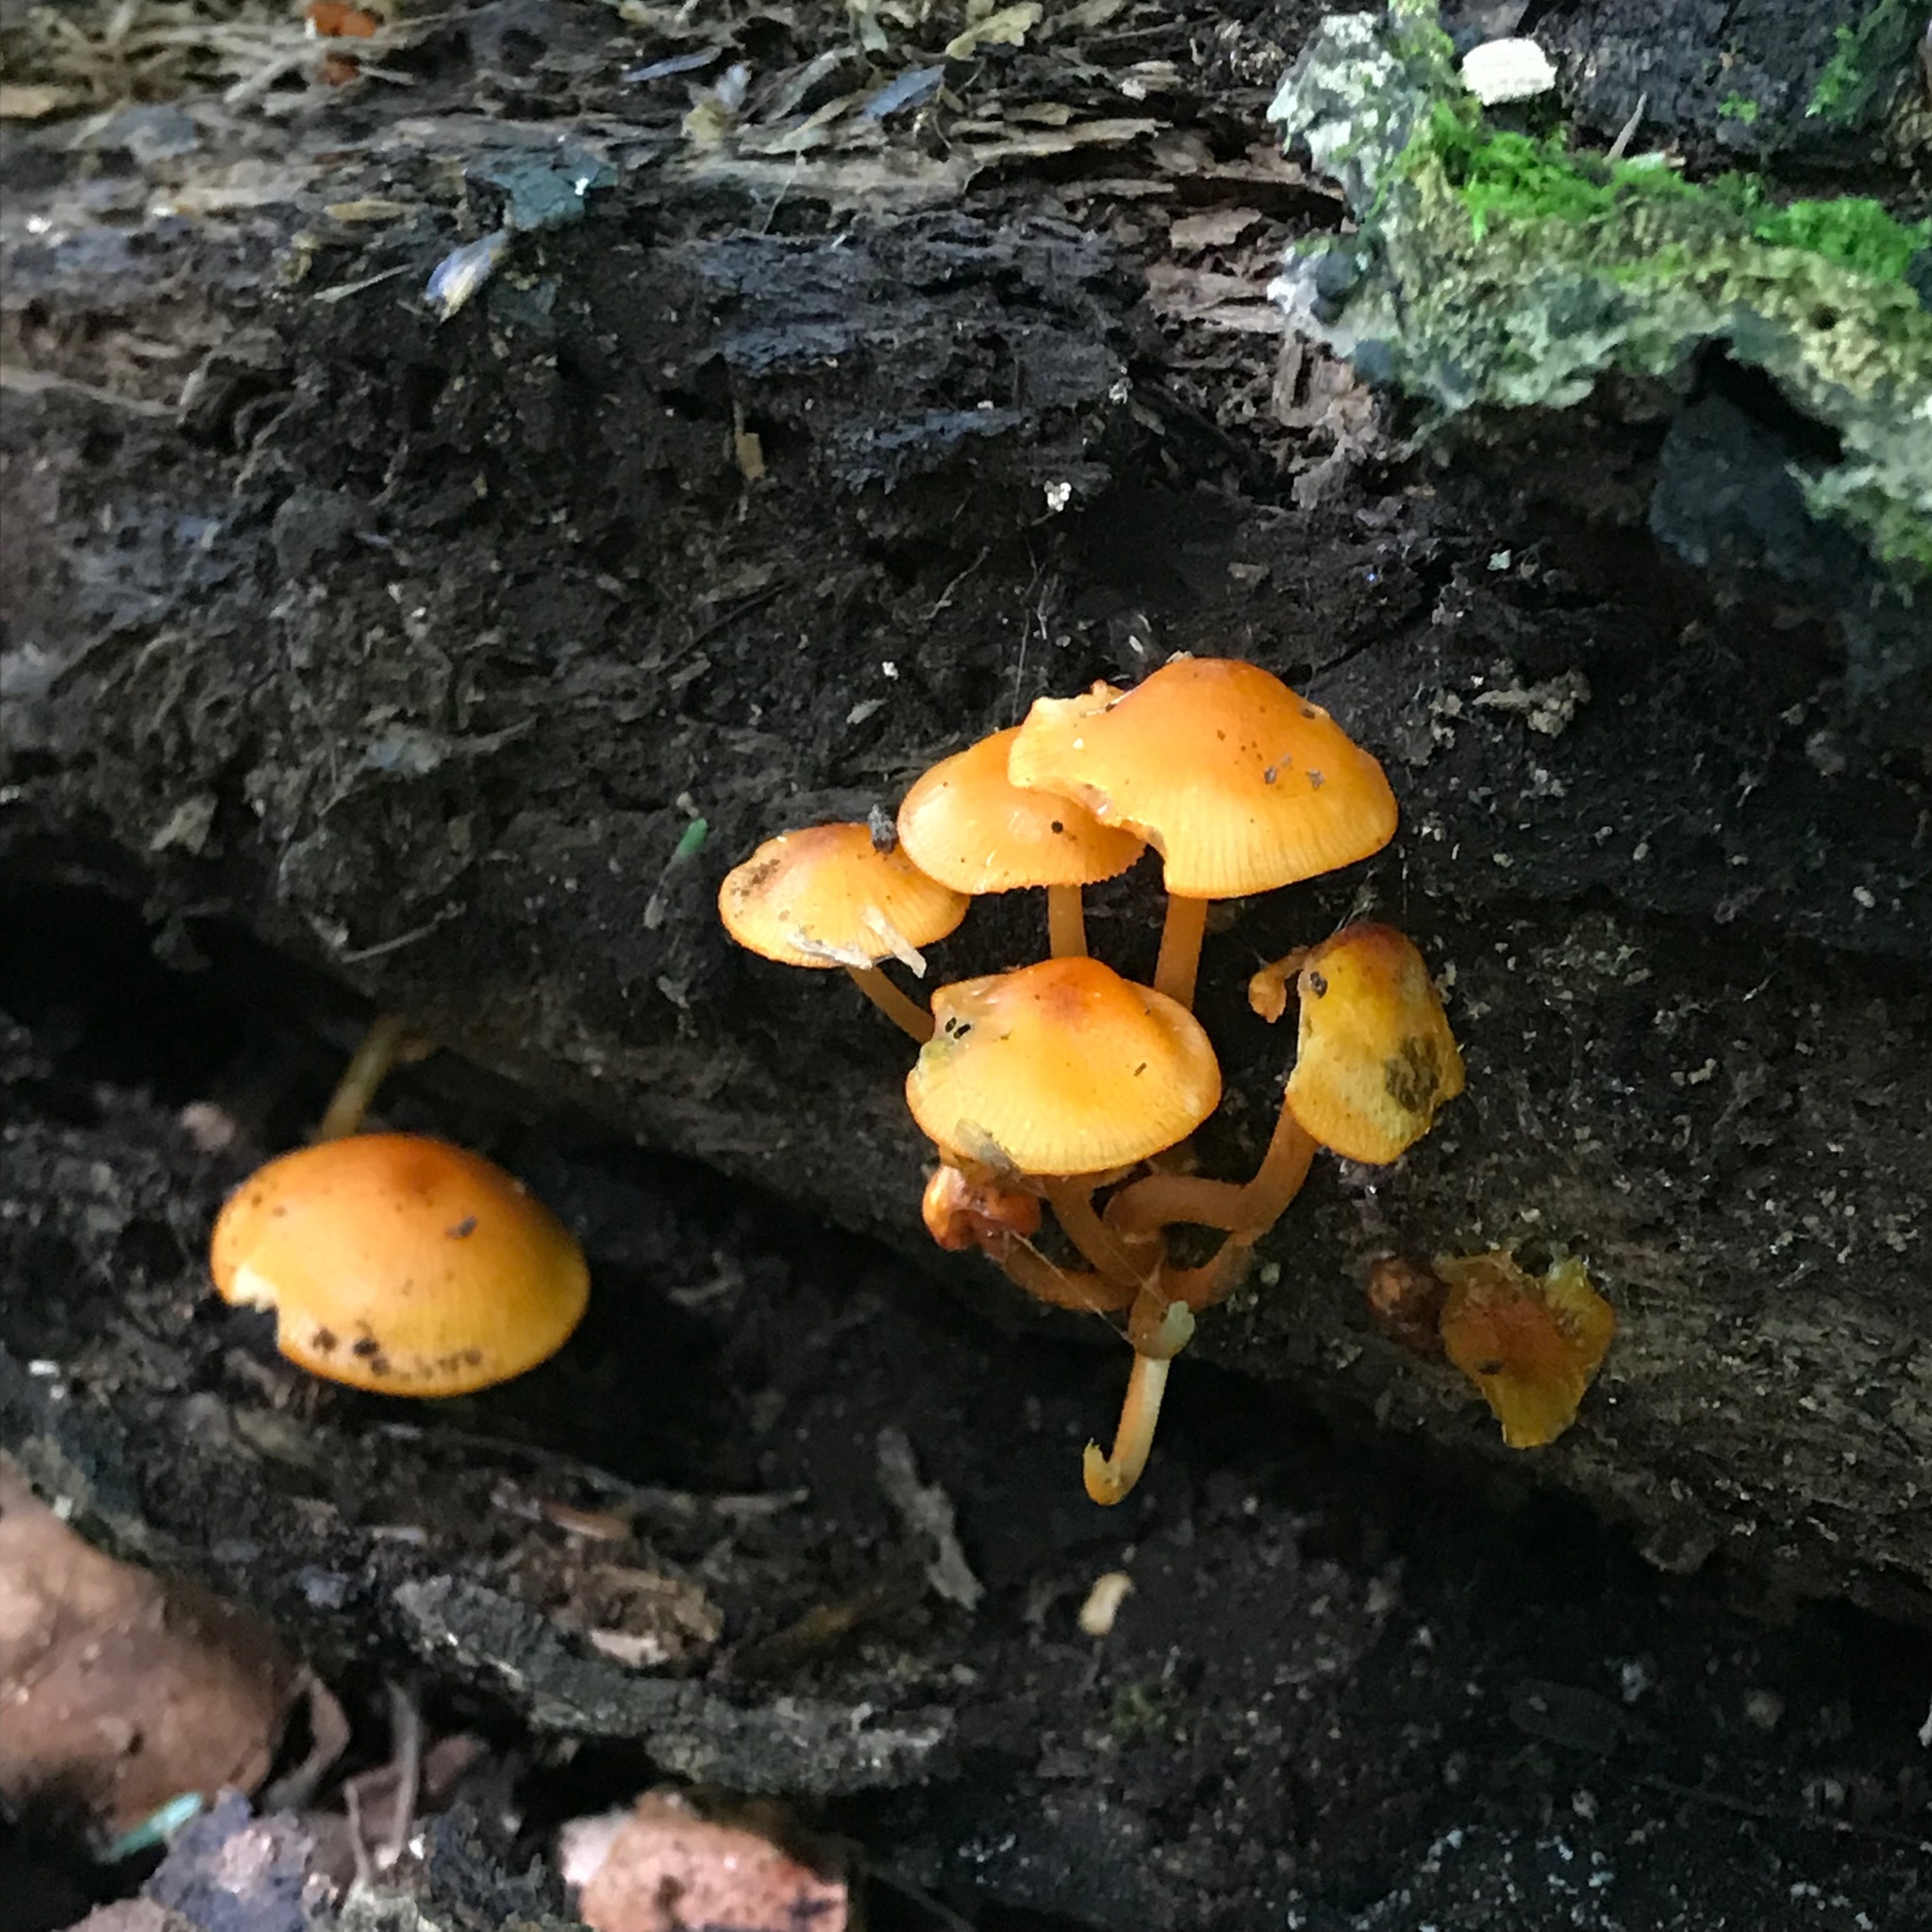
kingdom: Fungi
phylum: Basidiomycota
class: Agaricomycetes
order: Agaricales
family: Mycenaceae
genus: Mycena
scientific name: Mycena leaiana
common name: Orange mycena
